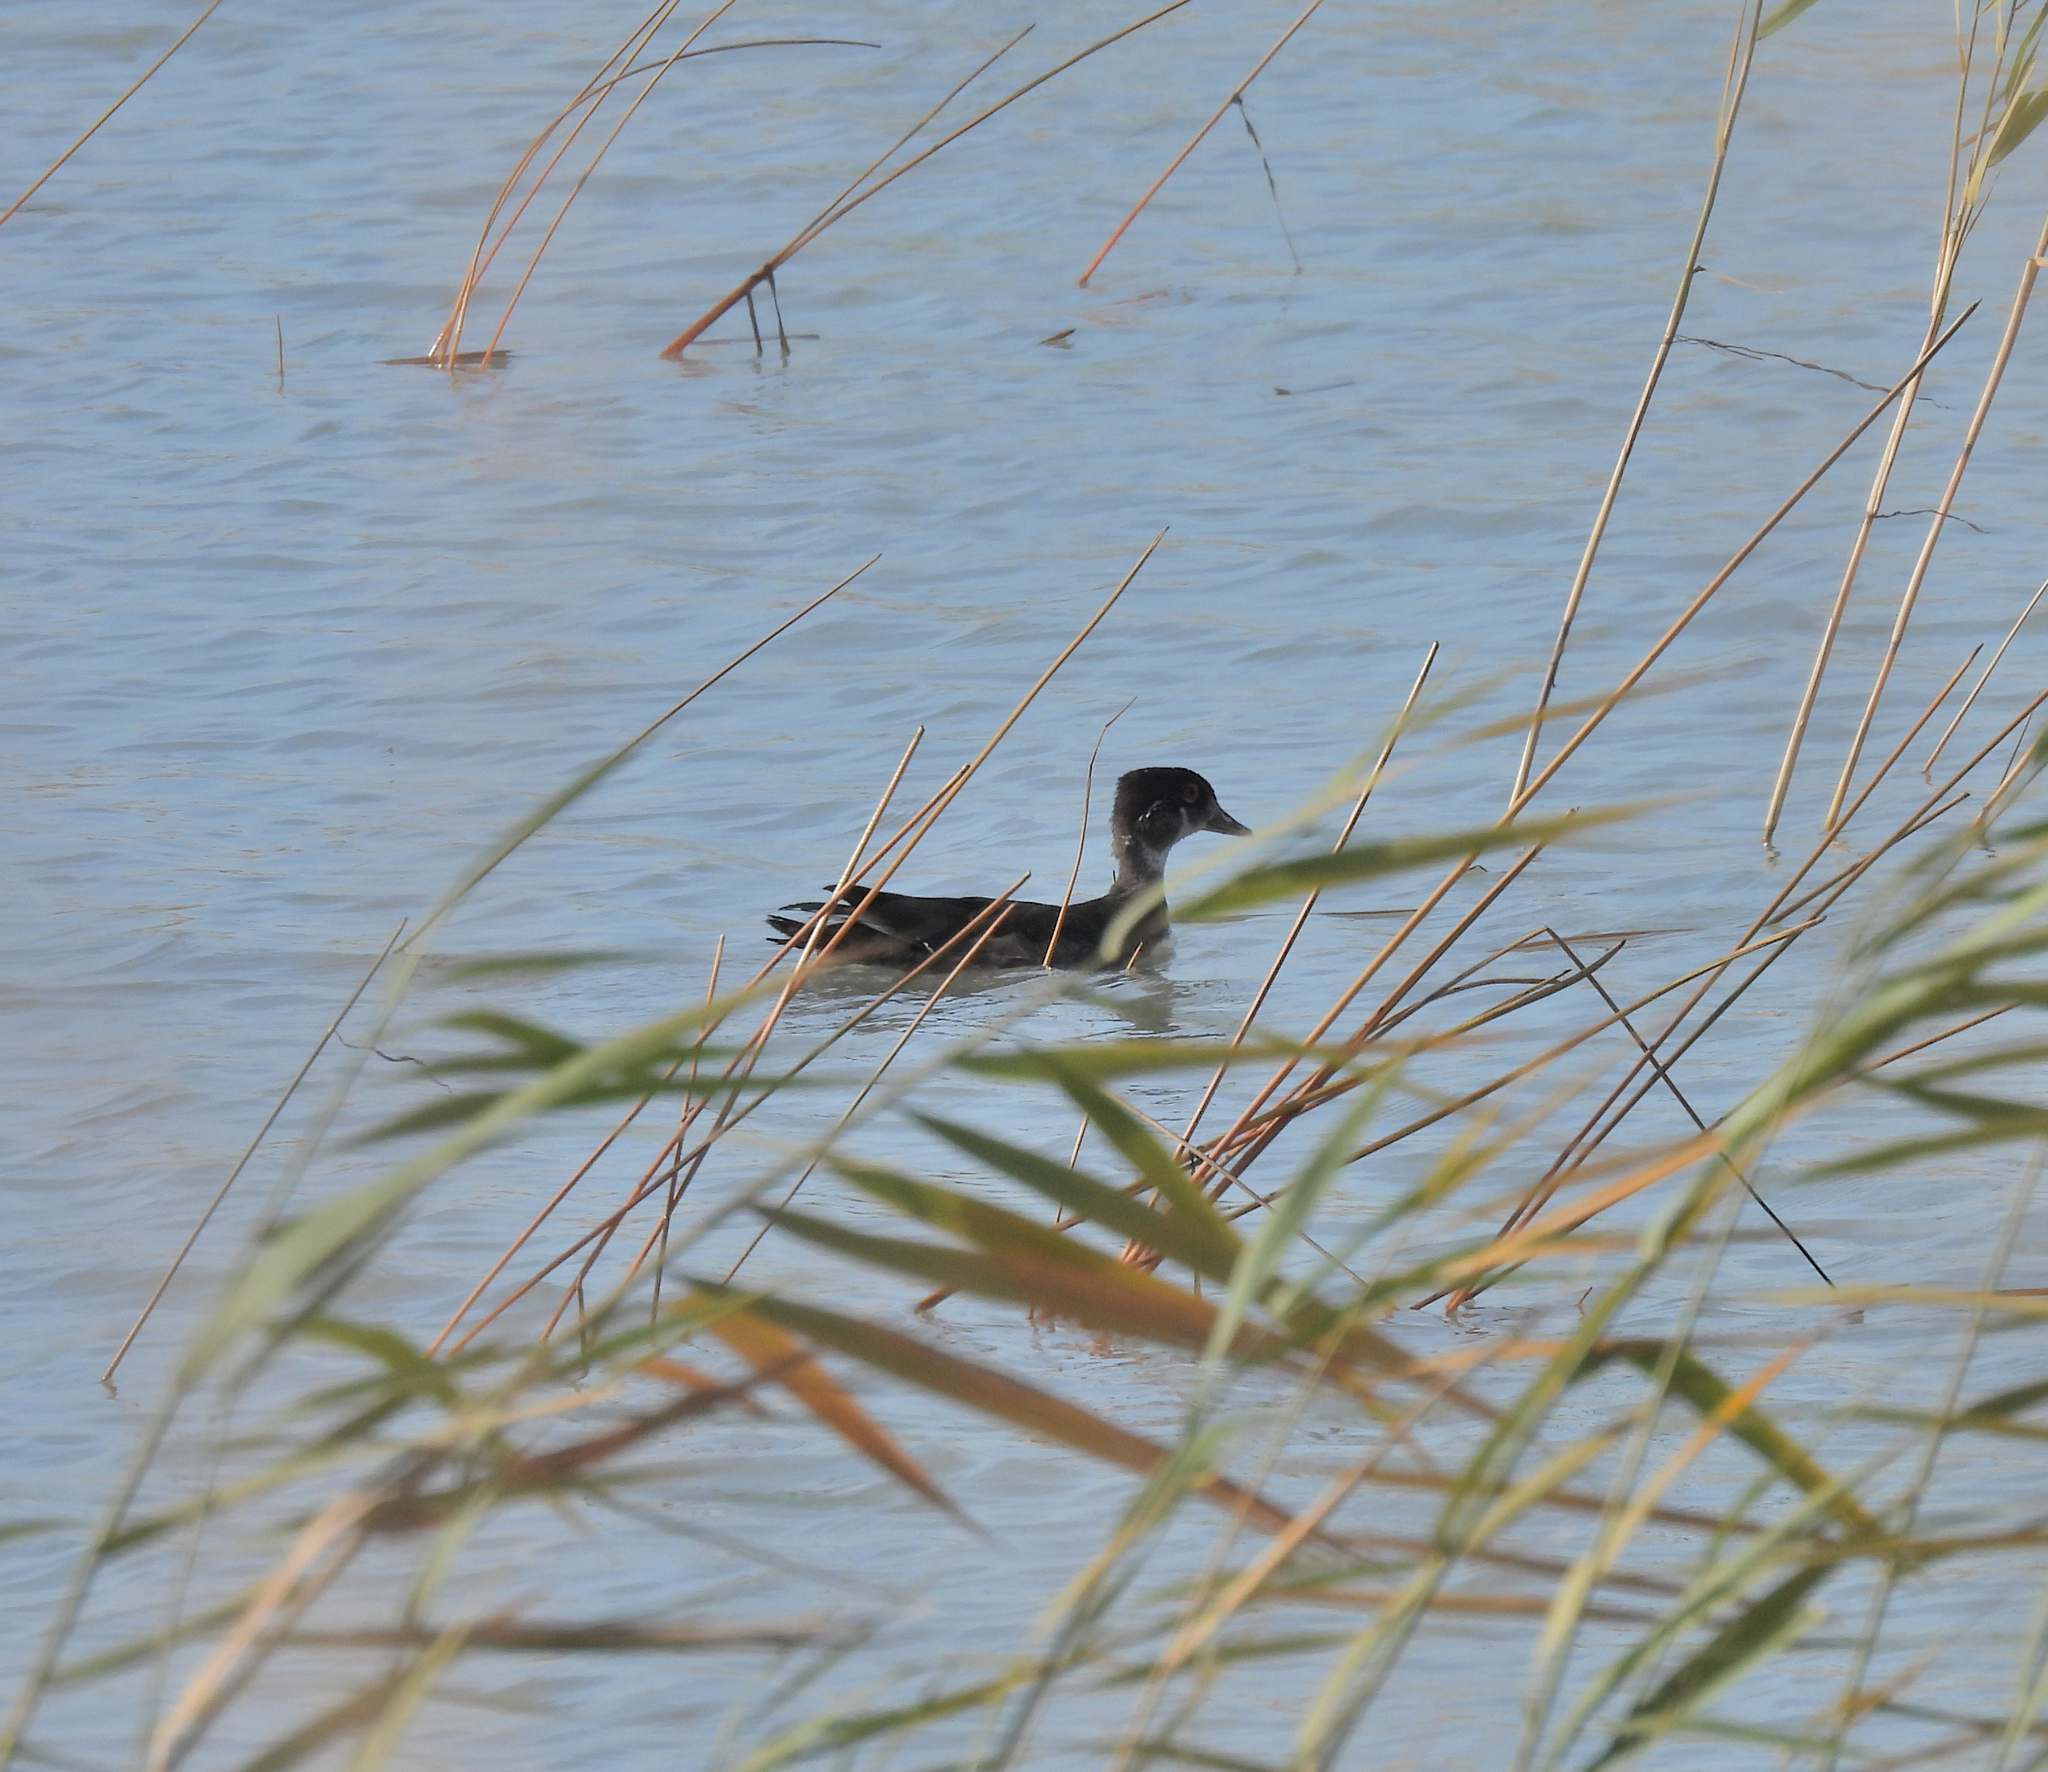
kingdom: Animalia
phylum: Chordata
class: Aves
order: Anseriformes
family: Anatidae
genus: Aix
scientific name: Aix sponsa
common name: Wood duck
